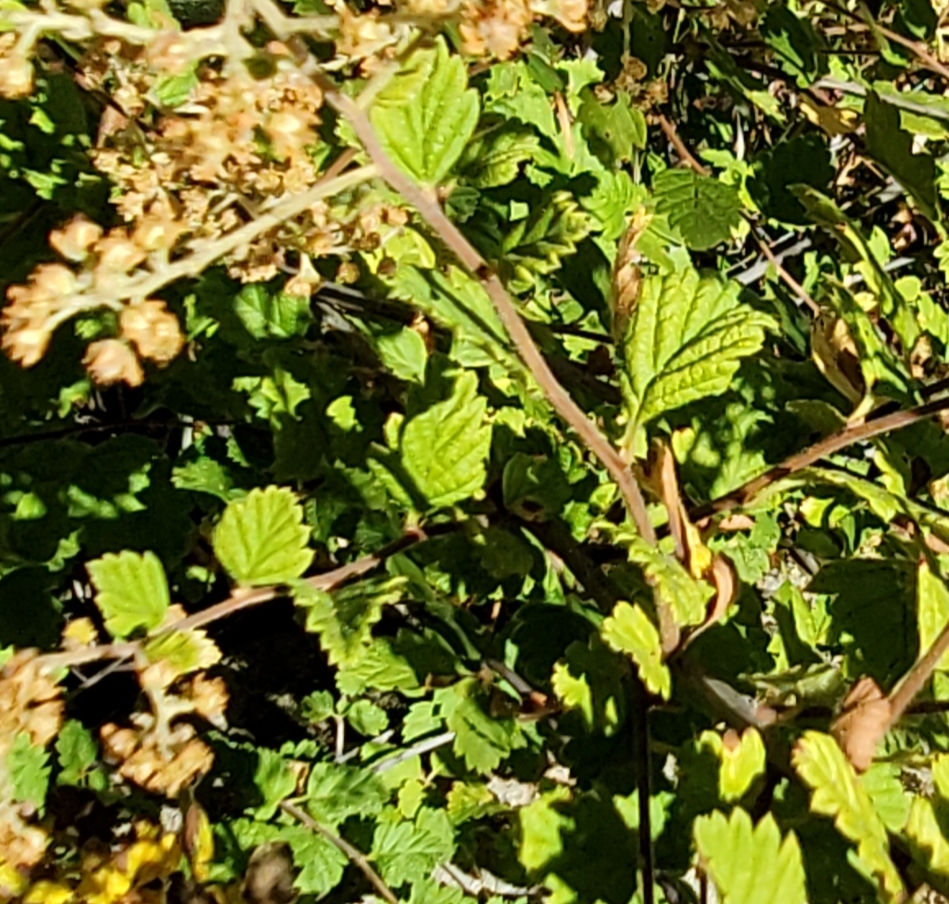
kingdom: Plantae
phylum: Tracheophyta
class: Magnoliopsida
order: Rosales
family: Rosaceae
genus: Holodiscus
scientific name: Holodiscus discolor
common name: Oceanspray
